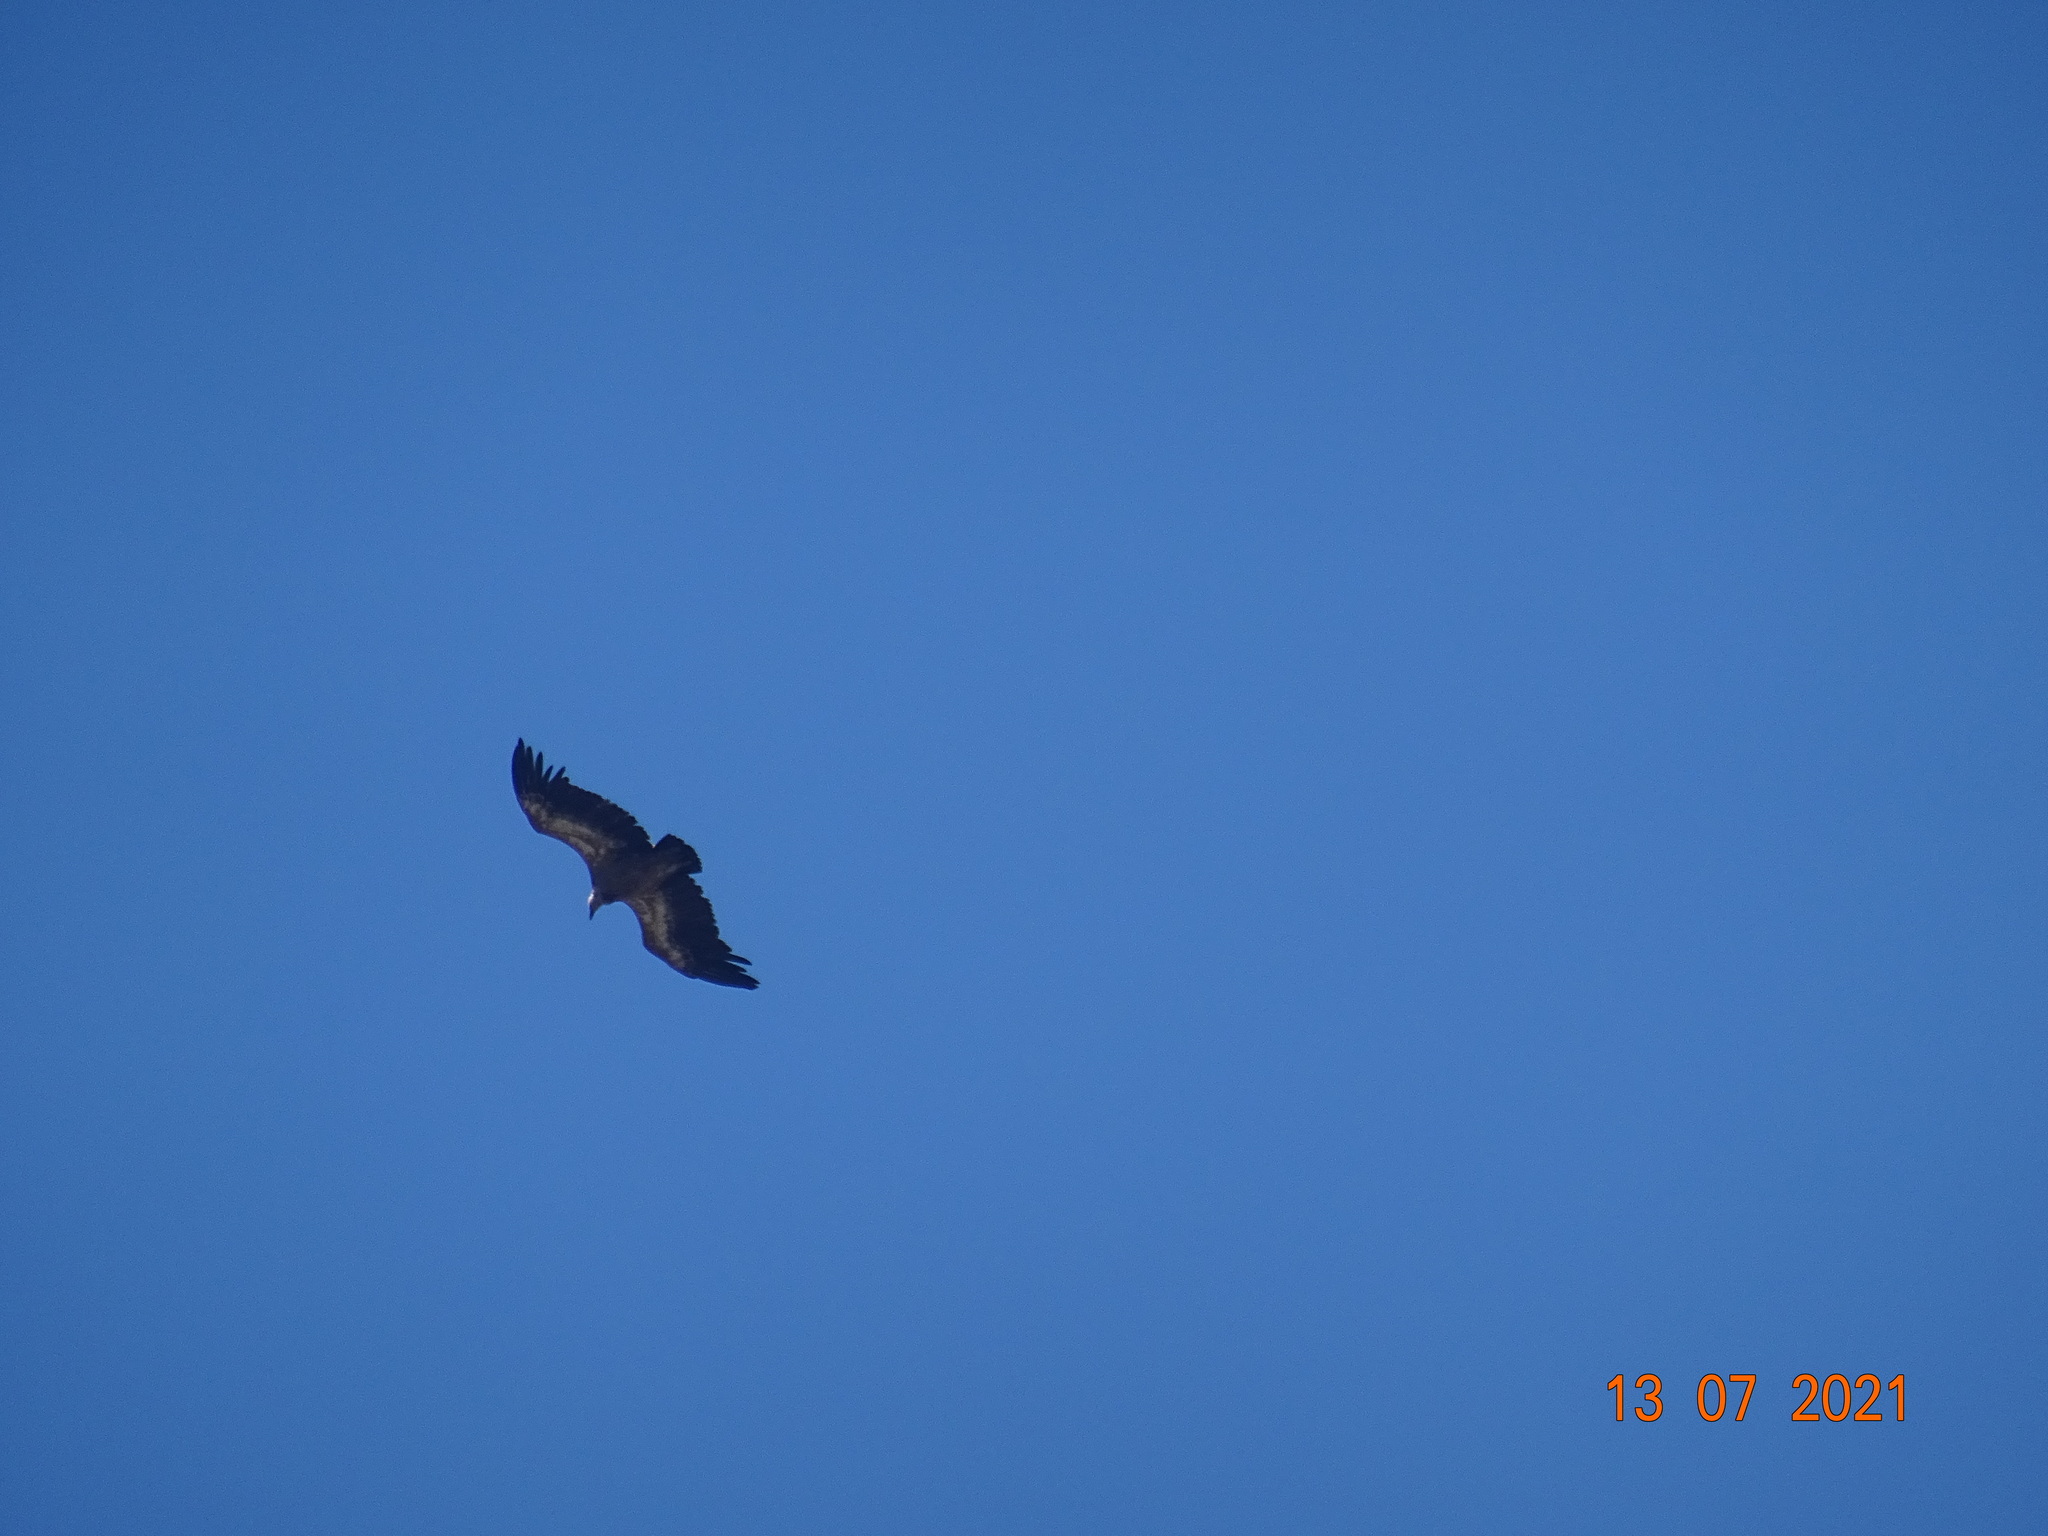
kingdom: Animalia
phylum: Chordata
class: Aves
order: Accipitriformes
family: Accipitridae
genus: Gyps
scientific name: Gyps fulvus
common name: Griffon vulture
